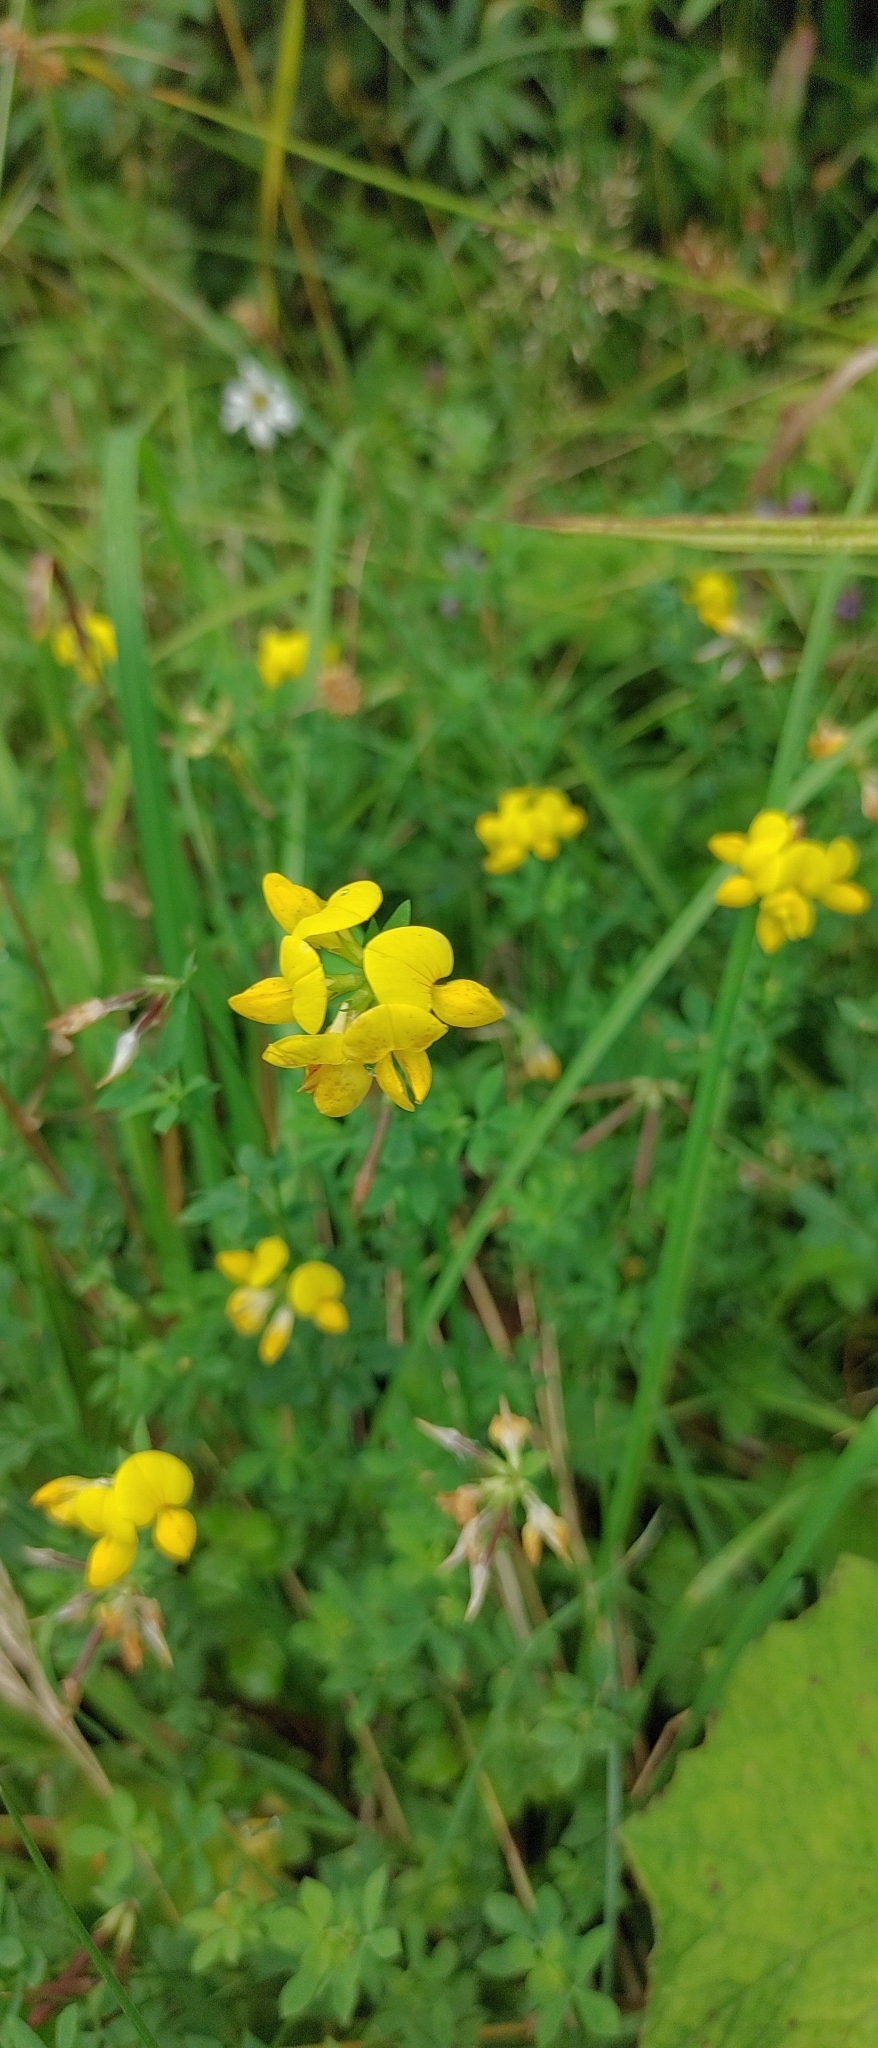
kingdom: Plantae
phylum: Tracheophyta
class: Magnoliopsida
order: Fabales
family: Fabaceae
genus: Lotus
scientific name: Lotus corniculatus
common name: Common bird's-foot-trefoil
